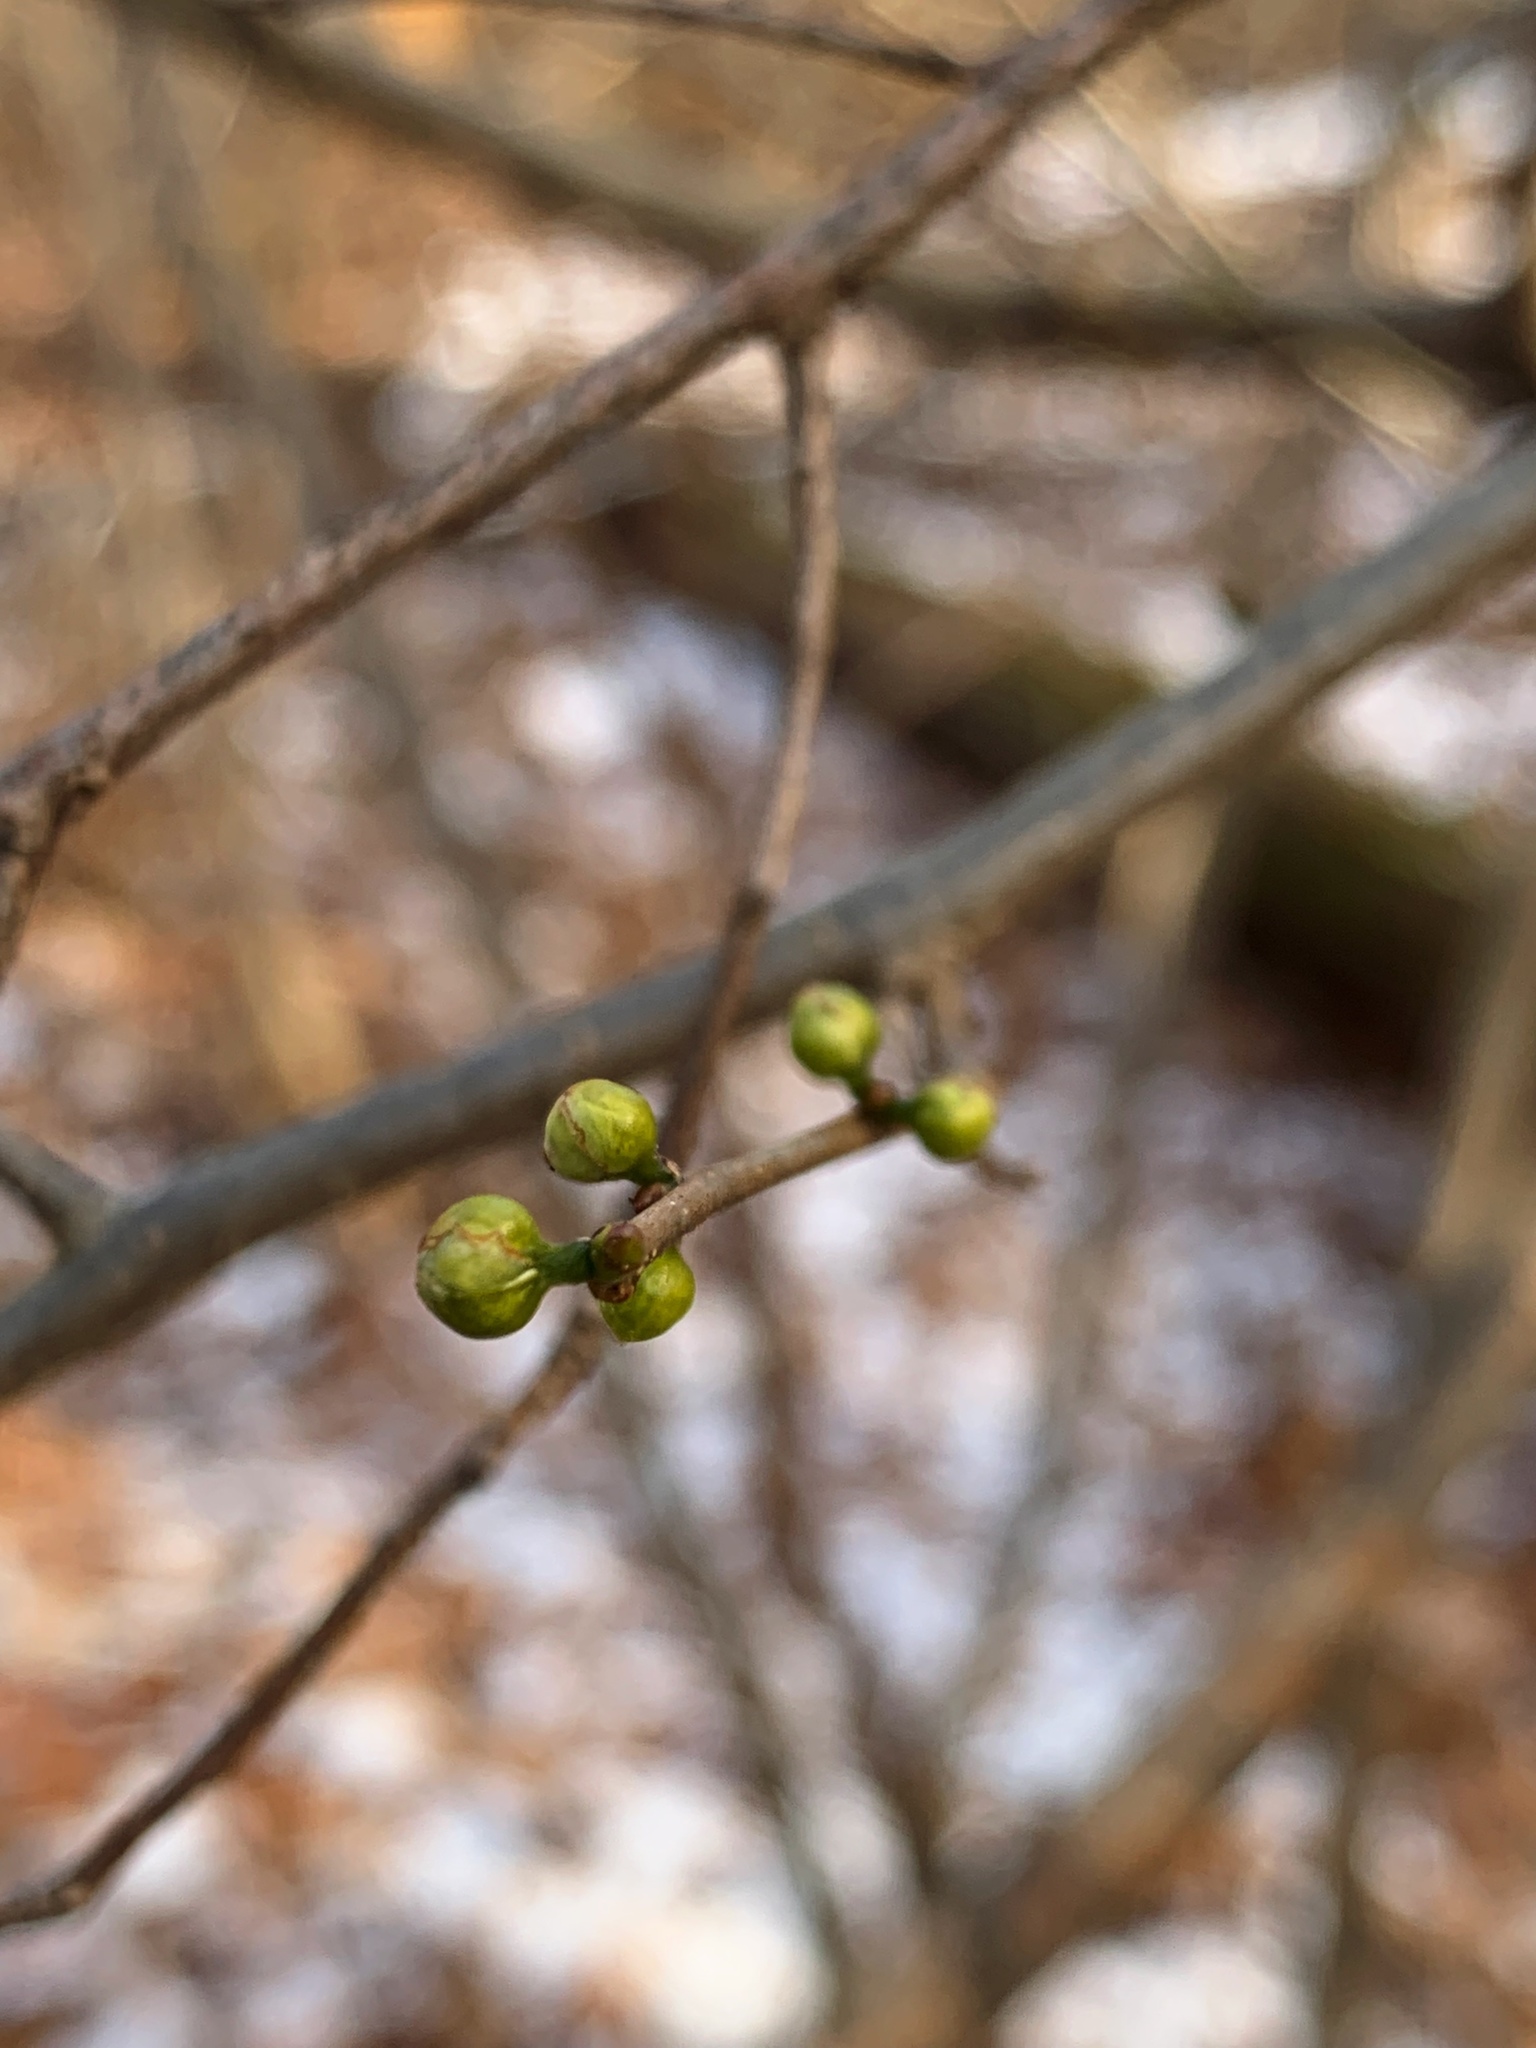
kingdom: Plantae
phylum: Tracheophyta
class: Magnoliopsida
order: Laurales
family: Lauraceae
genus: Lindera
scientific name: Lindera benzoin
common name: Spicebush
